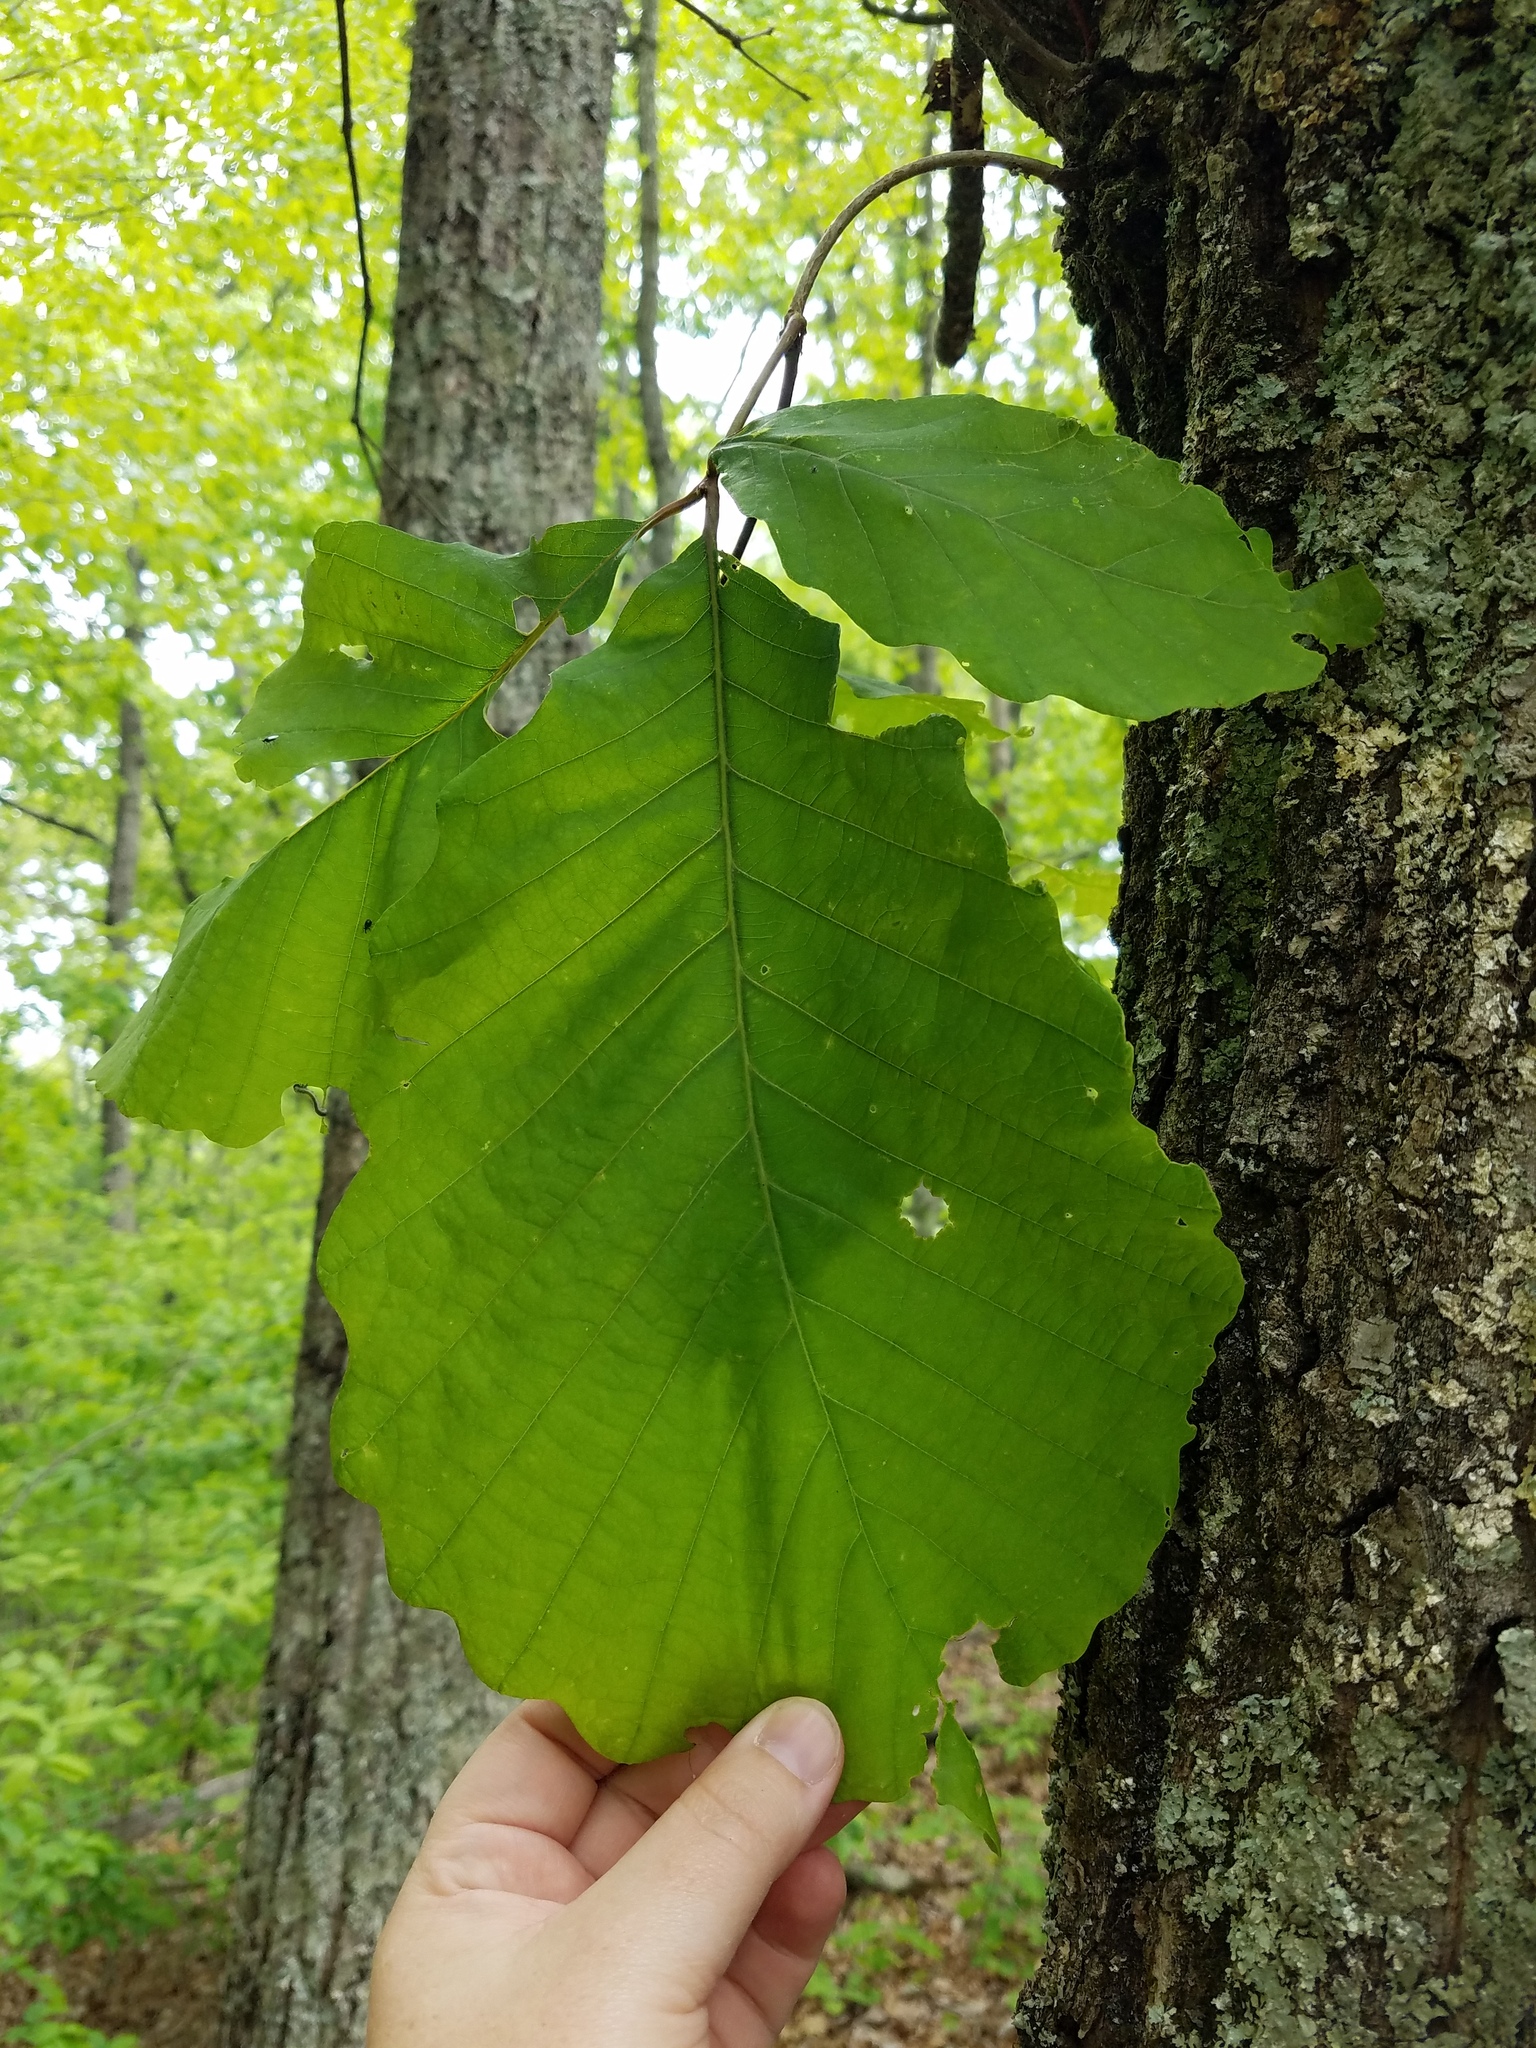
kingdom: Plantae
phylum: Tracheophyta
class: Magnoliopsida
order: Fagales
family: Fagaceae
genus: Quercus
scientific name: Quercus montana
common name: Chestnut oak
